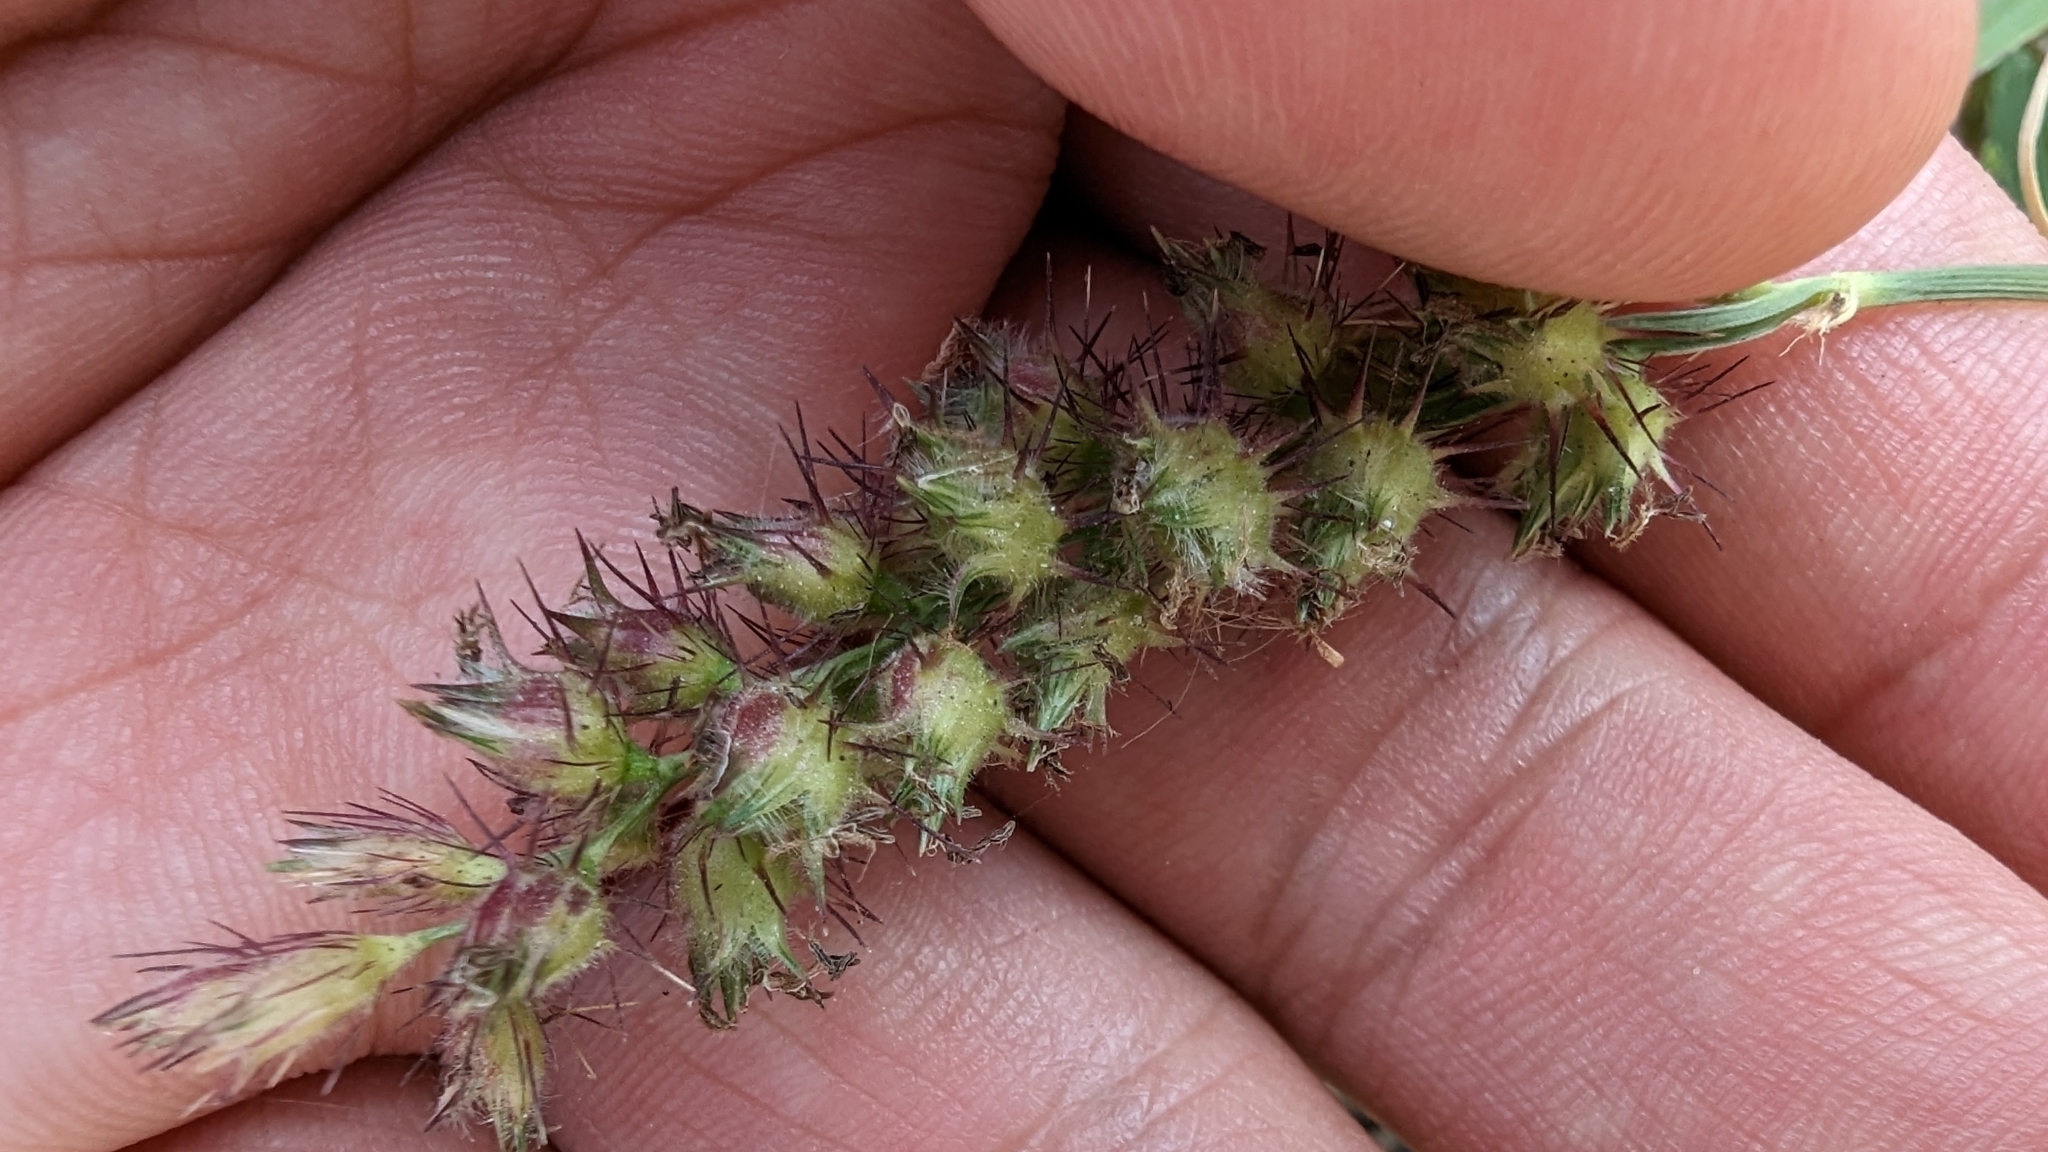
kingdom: Plantae
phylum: Tracheophyta
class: Liliopsida
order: Poales
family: Poaceae
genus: Cenchrus
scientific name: Cenchrus echinatus
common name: Southern sandbur
